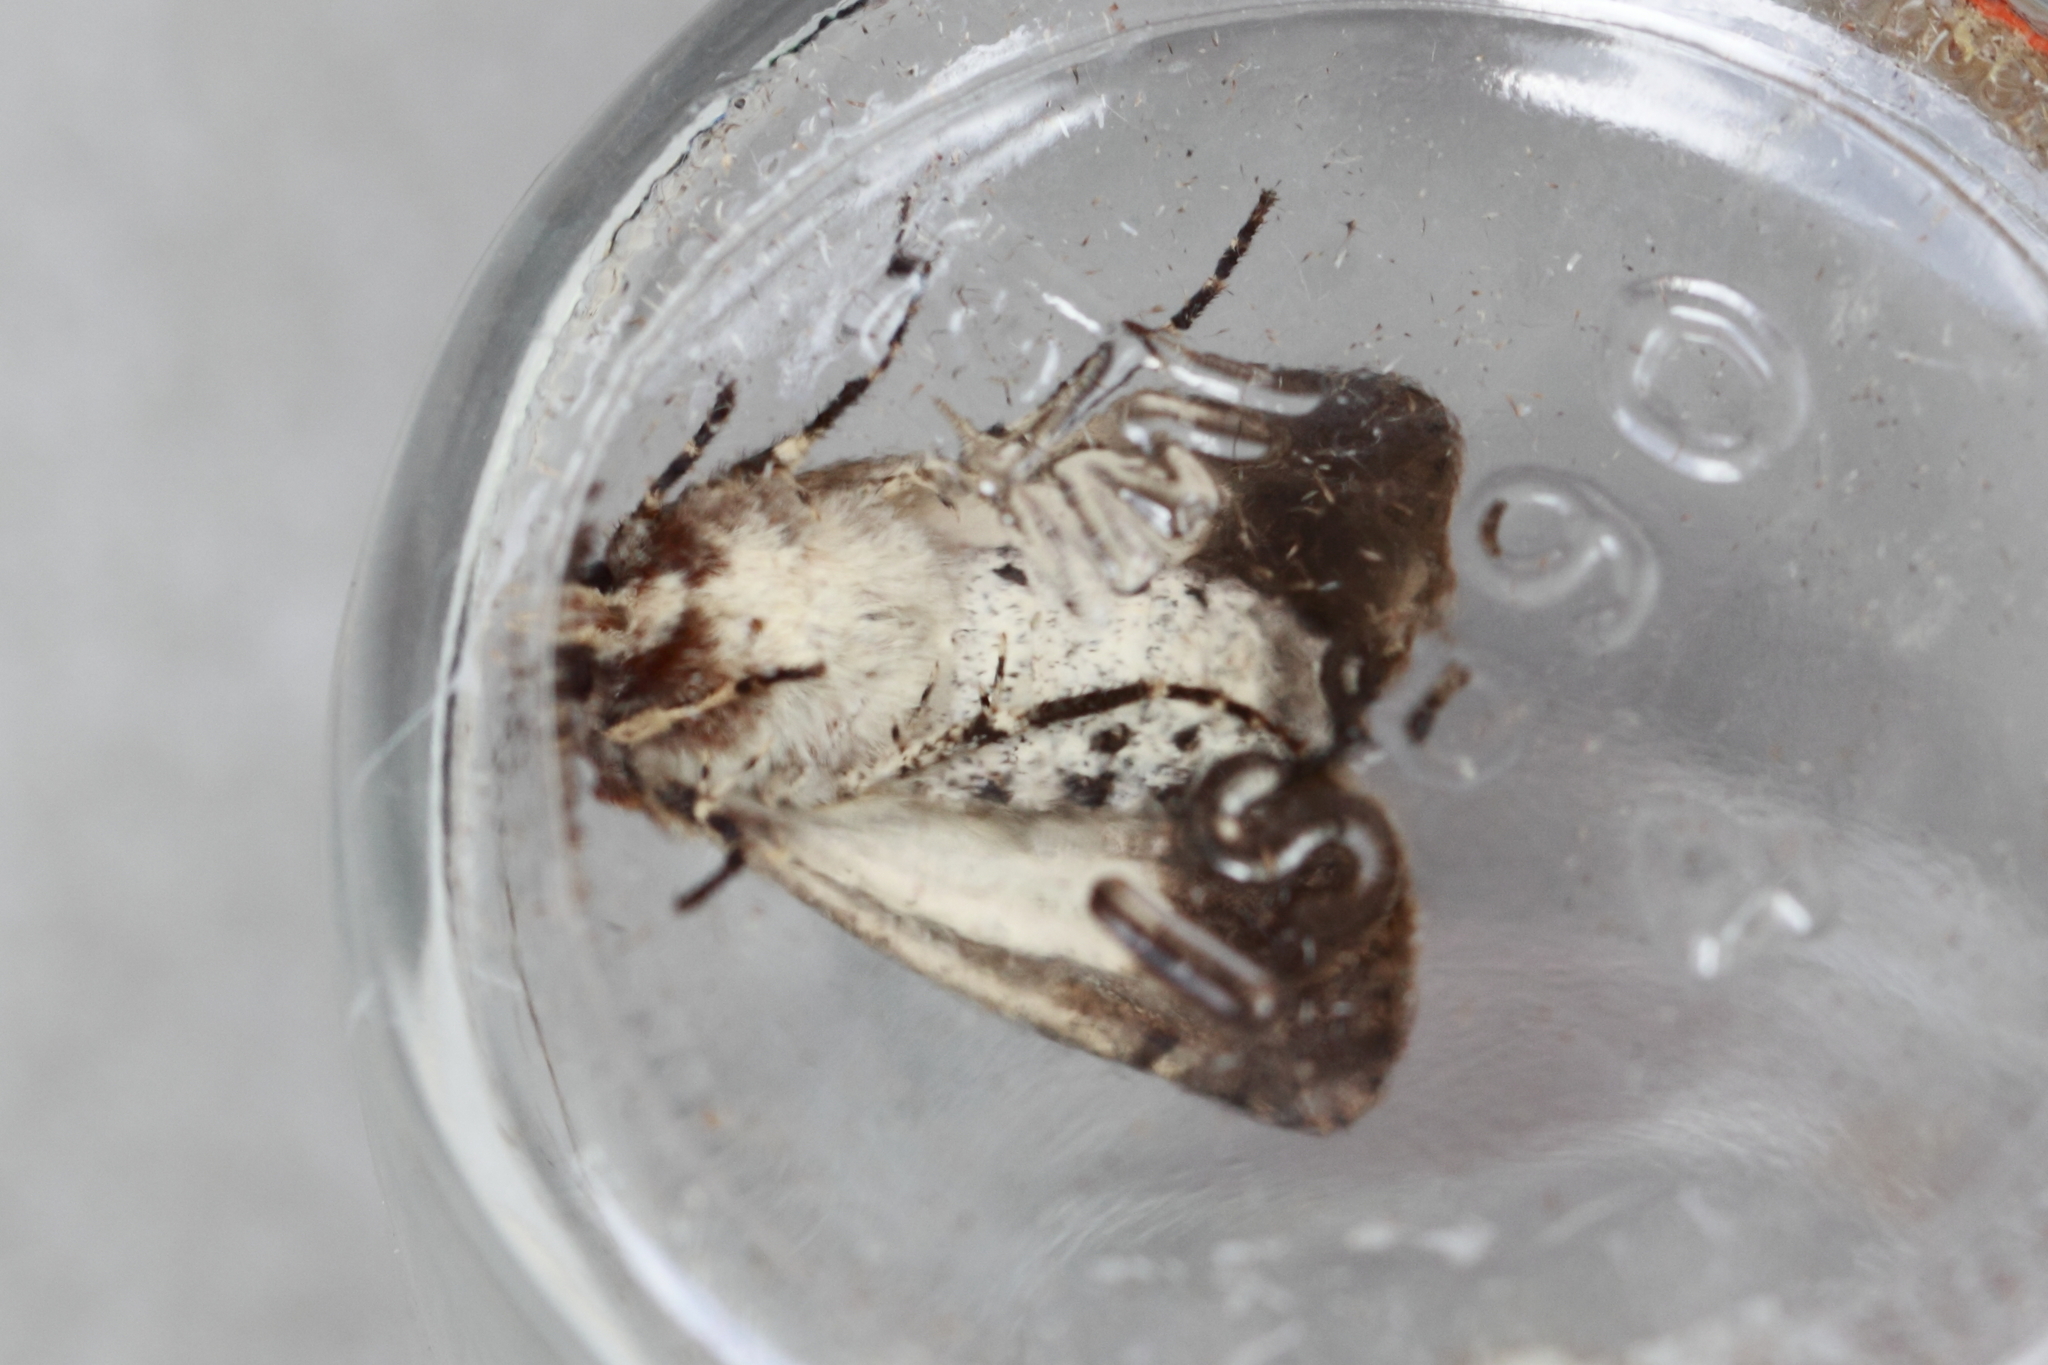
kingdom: Animalia
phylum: Arthropoda
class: Insecta
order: Lepidoptera
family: Noctuidae
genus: Agrotis
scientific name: Agrotis porphyricollis
